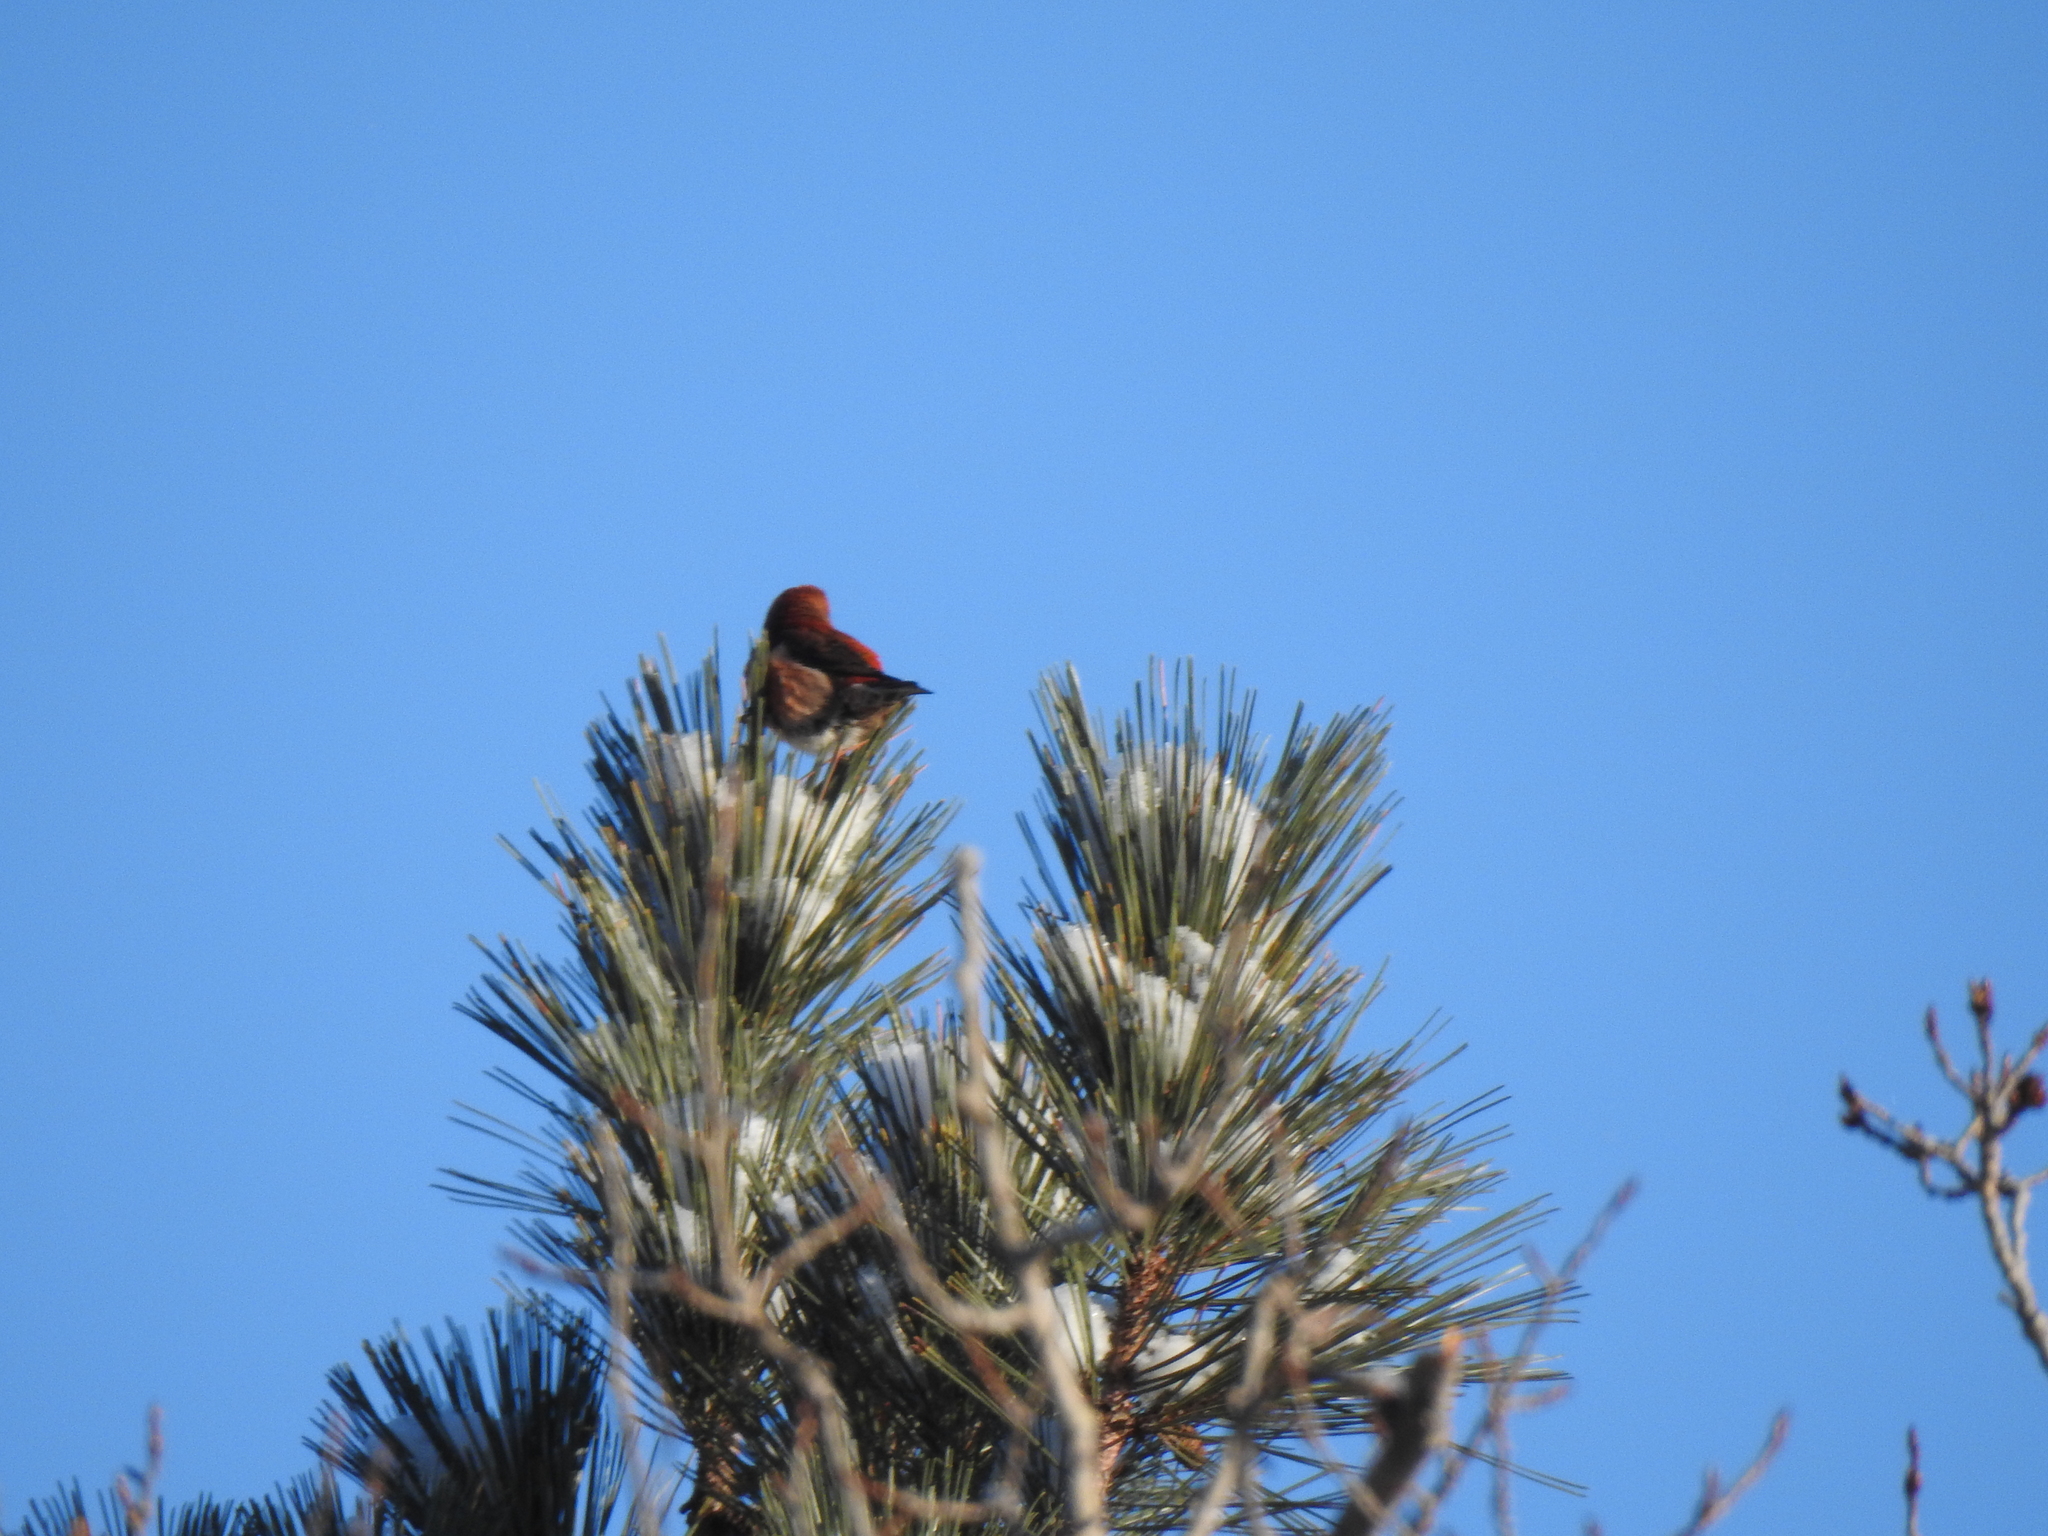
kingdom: Animalia
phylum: Chordata
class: Aves
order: Passeriformes
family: Fringillidae
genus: Loxia
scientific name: Loxia curvirostra
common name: Red crossbill
